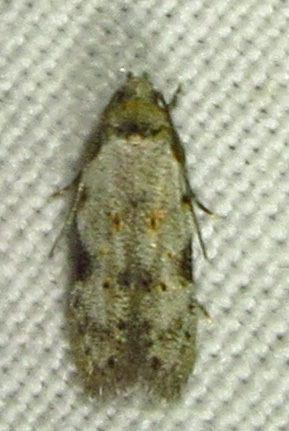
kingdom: Animalia
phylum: Arthropoda
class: Insecta
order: Lepidoptera
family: Autostichidae
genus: Taygete
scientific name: Taygete attributella
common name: Triangle-marked twirler moth
